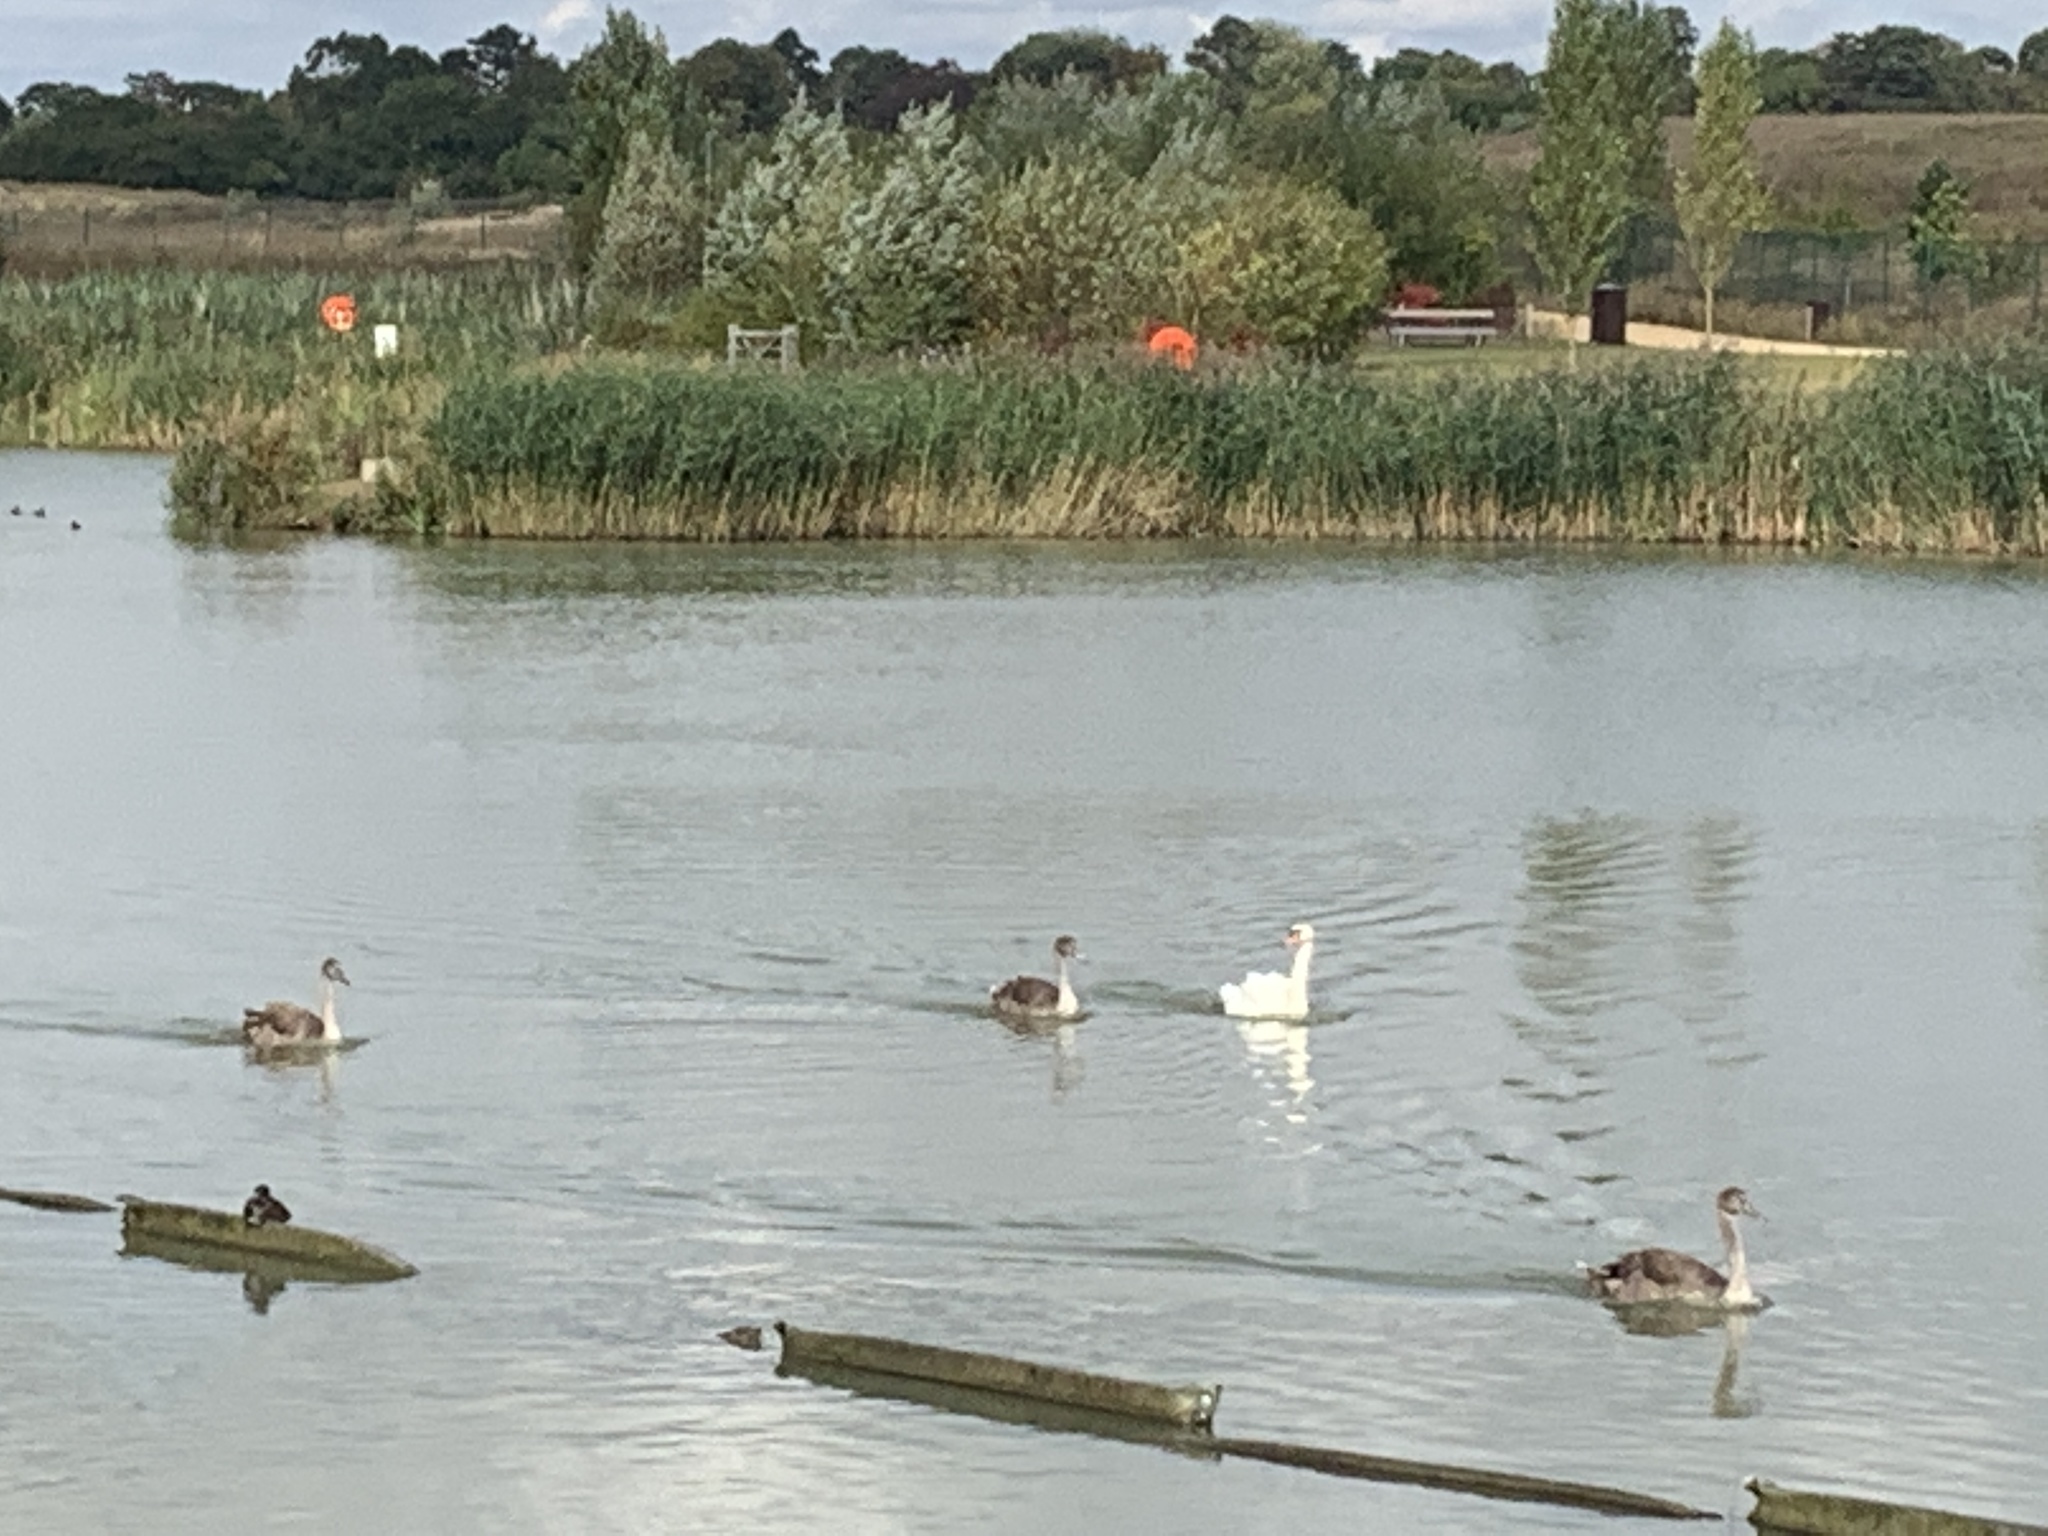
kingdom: Animalia
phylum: Chordata
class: Aves
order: Anseriformes
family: Anatidae
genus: Cygnus
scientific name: Cygnus olor
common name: Mute swan
